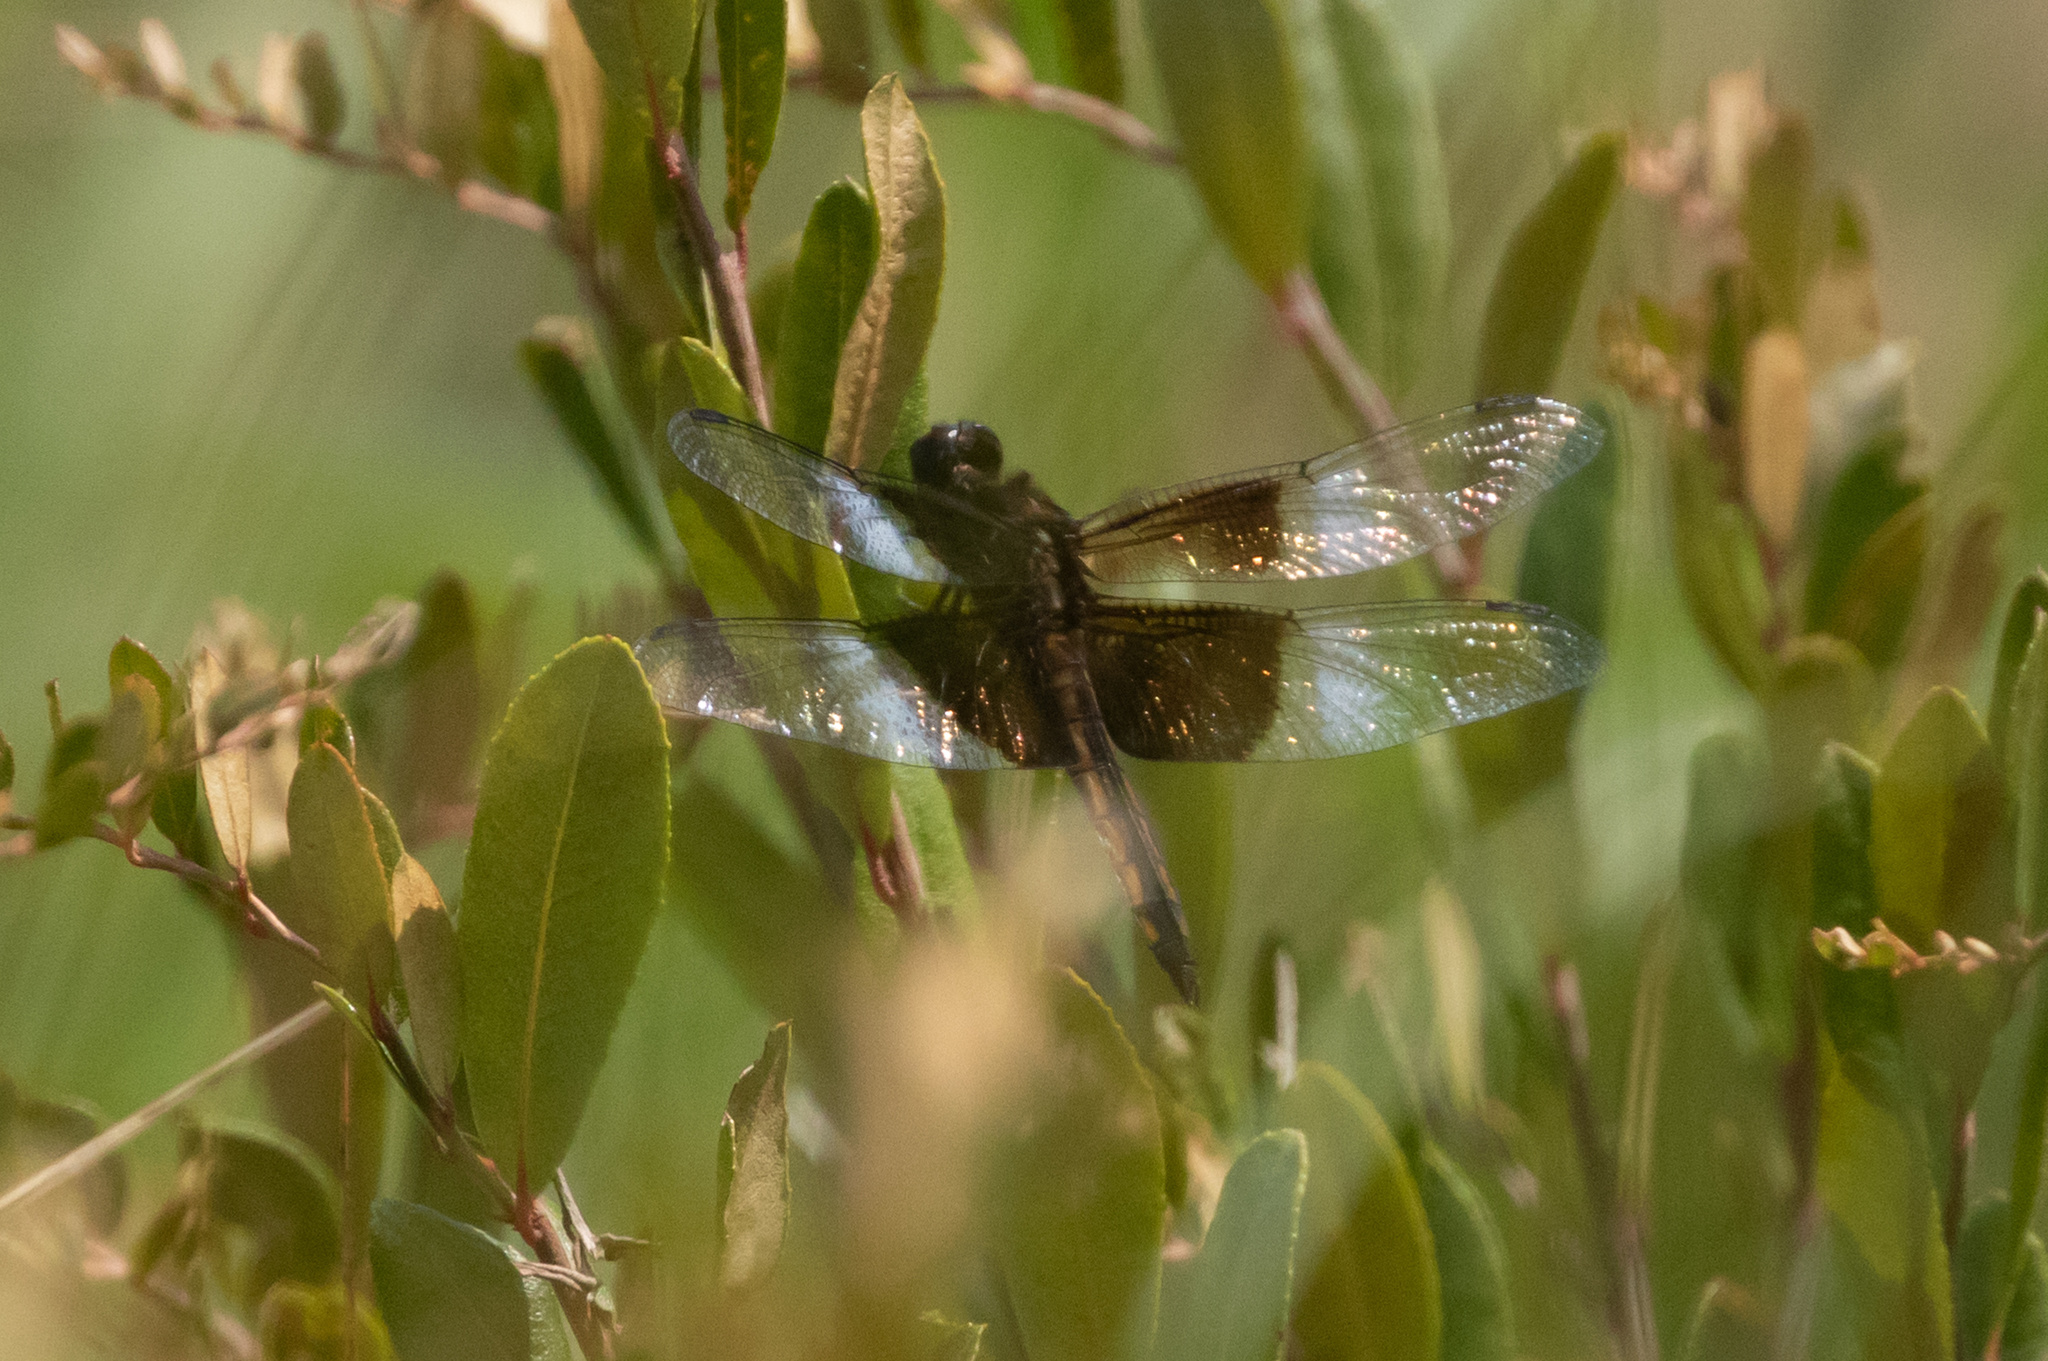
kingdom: Animalia
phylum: Arthropoda
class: Insecta
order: Odonata
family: Libellulidae
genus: Libellula
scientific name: Libellula luctuosa
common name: Widow skimmer
